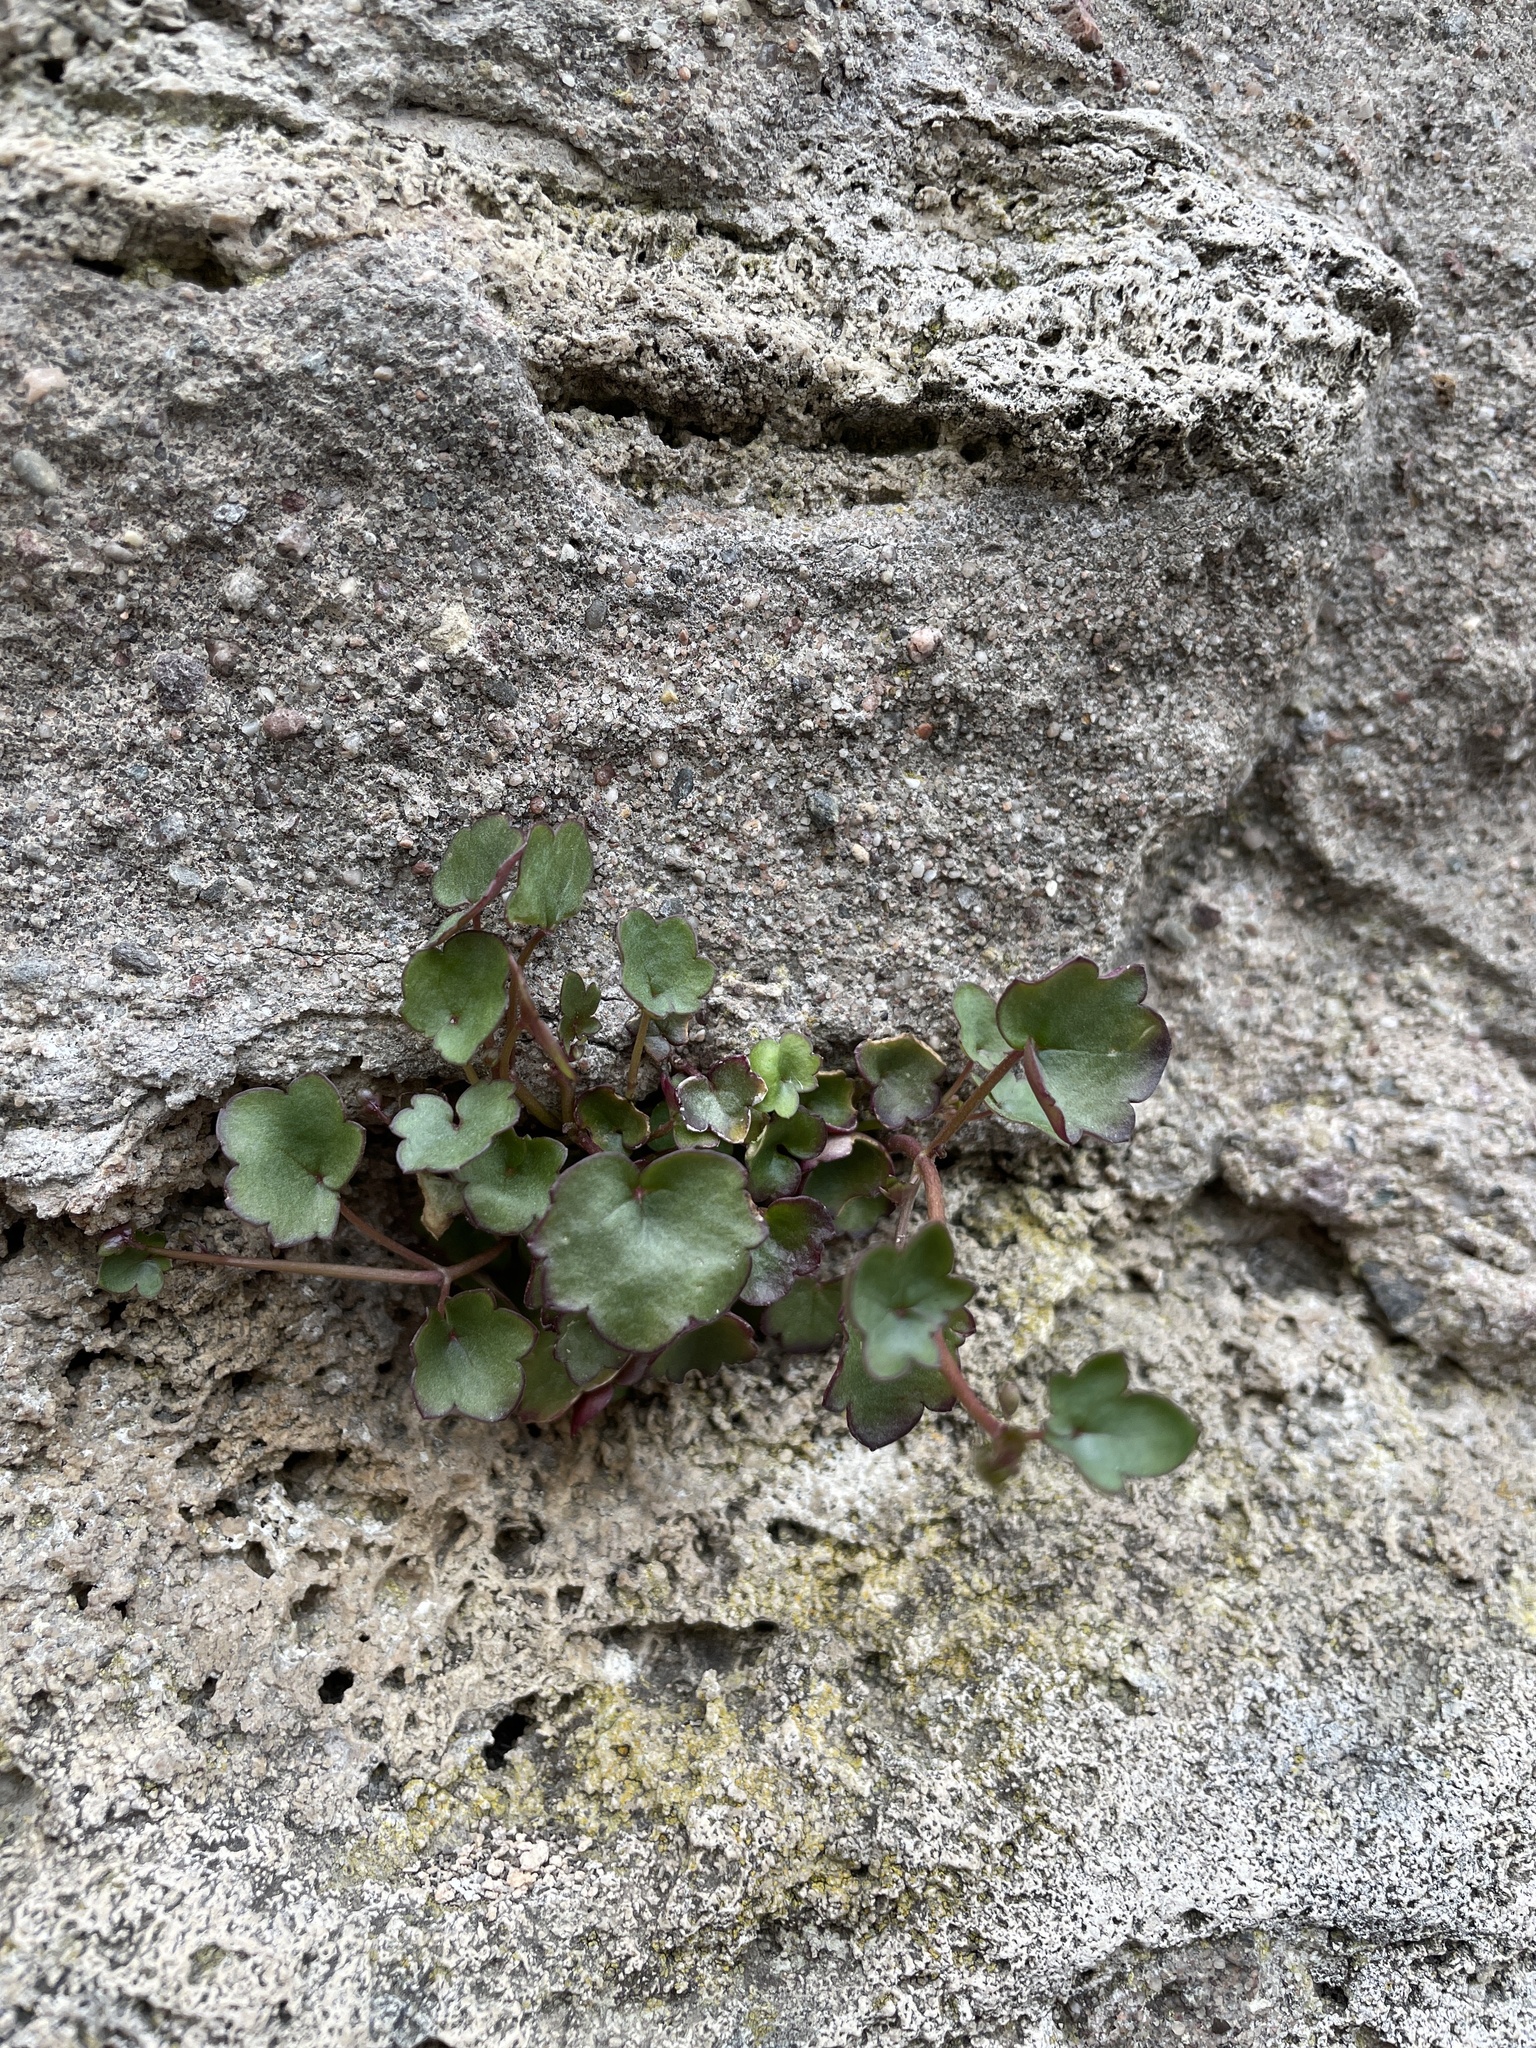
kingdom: Plantae
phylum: Tracheophyta
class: Magnoliopsida
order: Lamiales
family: Plantaginaceae
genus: Cymbalaria
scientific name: Cymbalaria muralis
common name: Ivy-leaved toadflax
